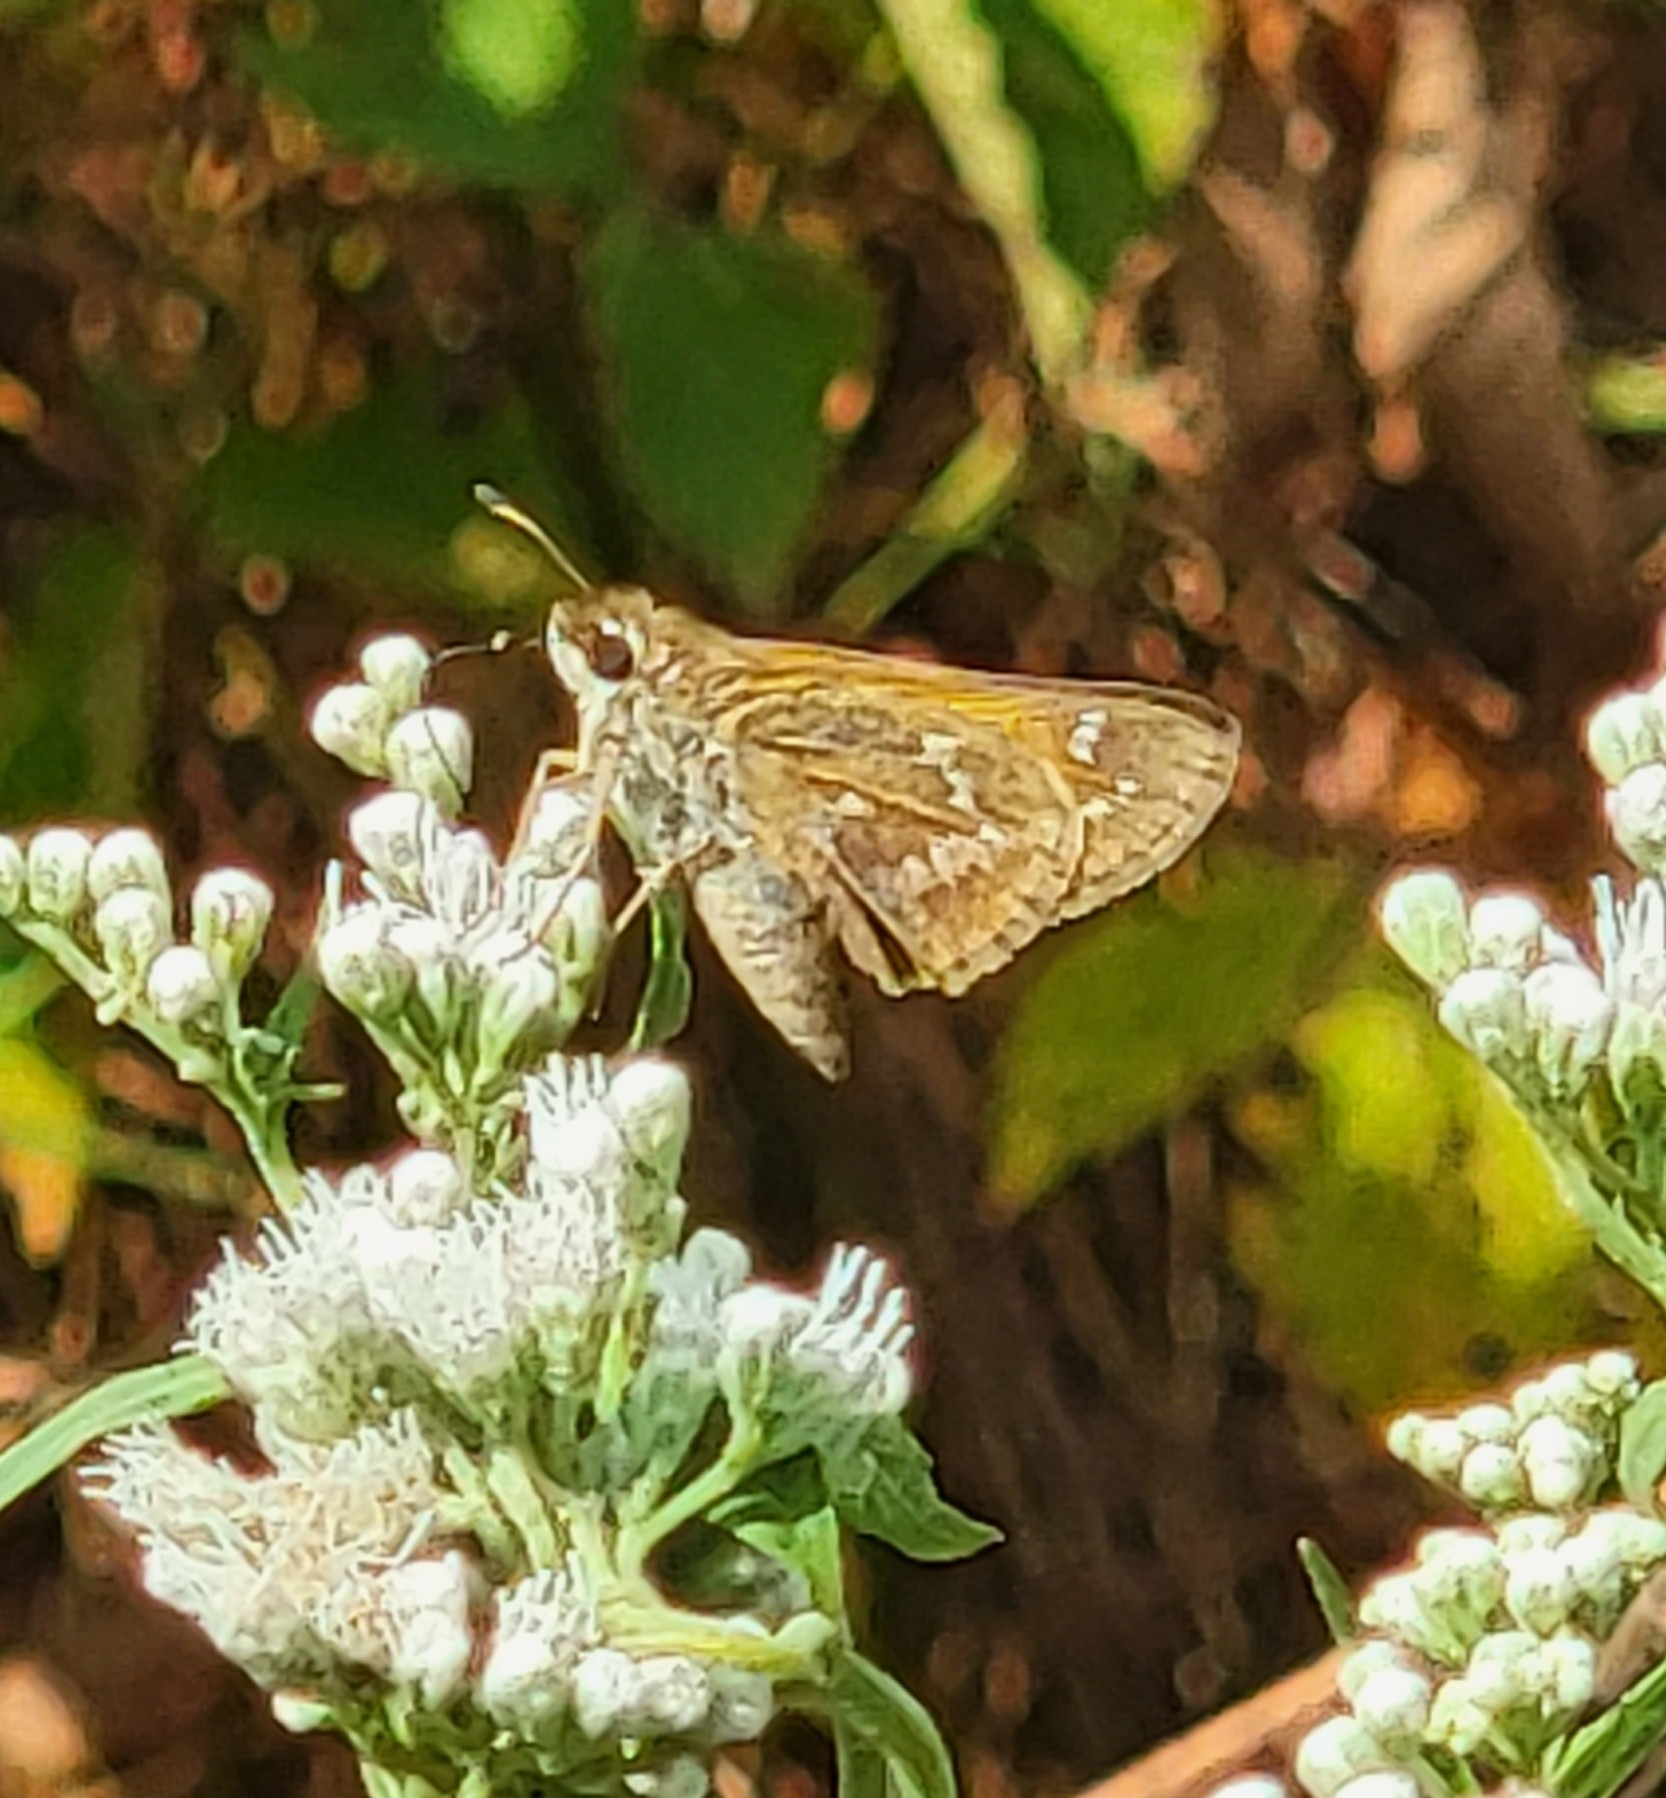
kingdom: Animalia
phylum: Arthropoda
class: Insecta
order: Lepidoptera
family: Hesperiidae
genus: Atalopedes
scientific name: Atalopedes
